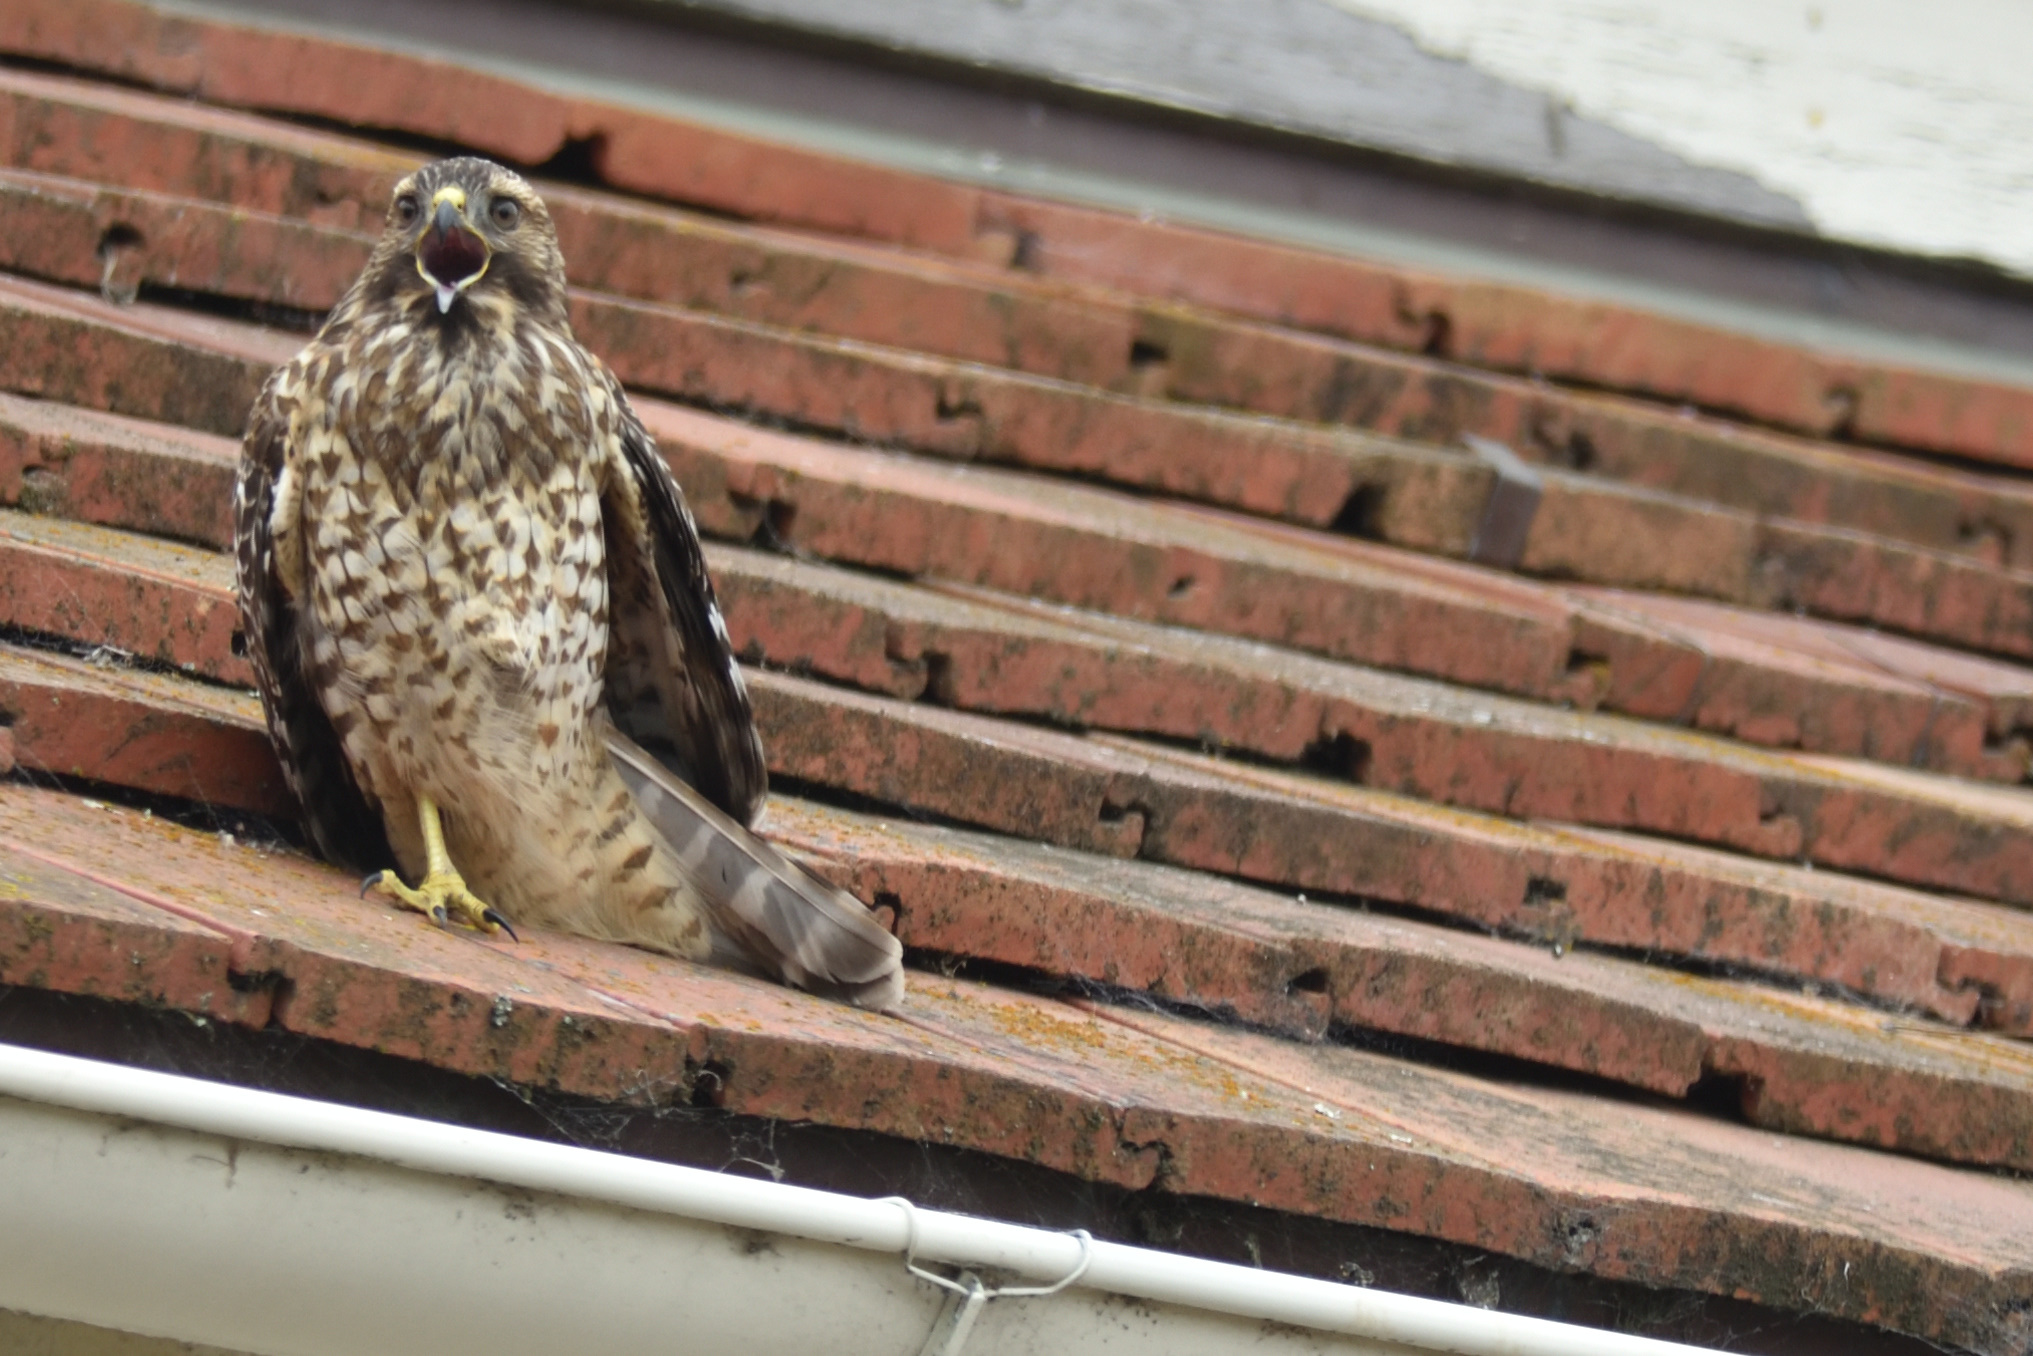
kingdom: Animalia
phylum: Chordata
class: Aves
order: Accipitriformes
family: Accipitridae
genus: Buteo
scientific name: Buteo lineatus
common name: Red-shouldered hawk
